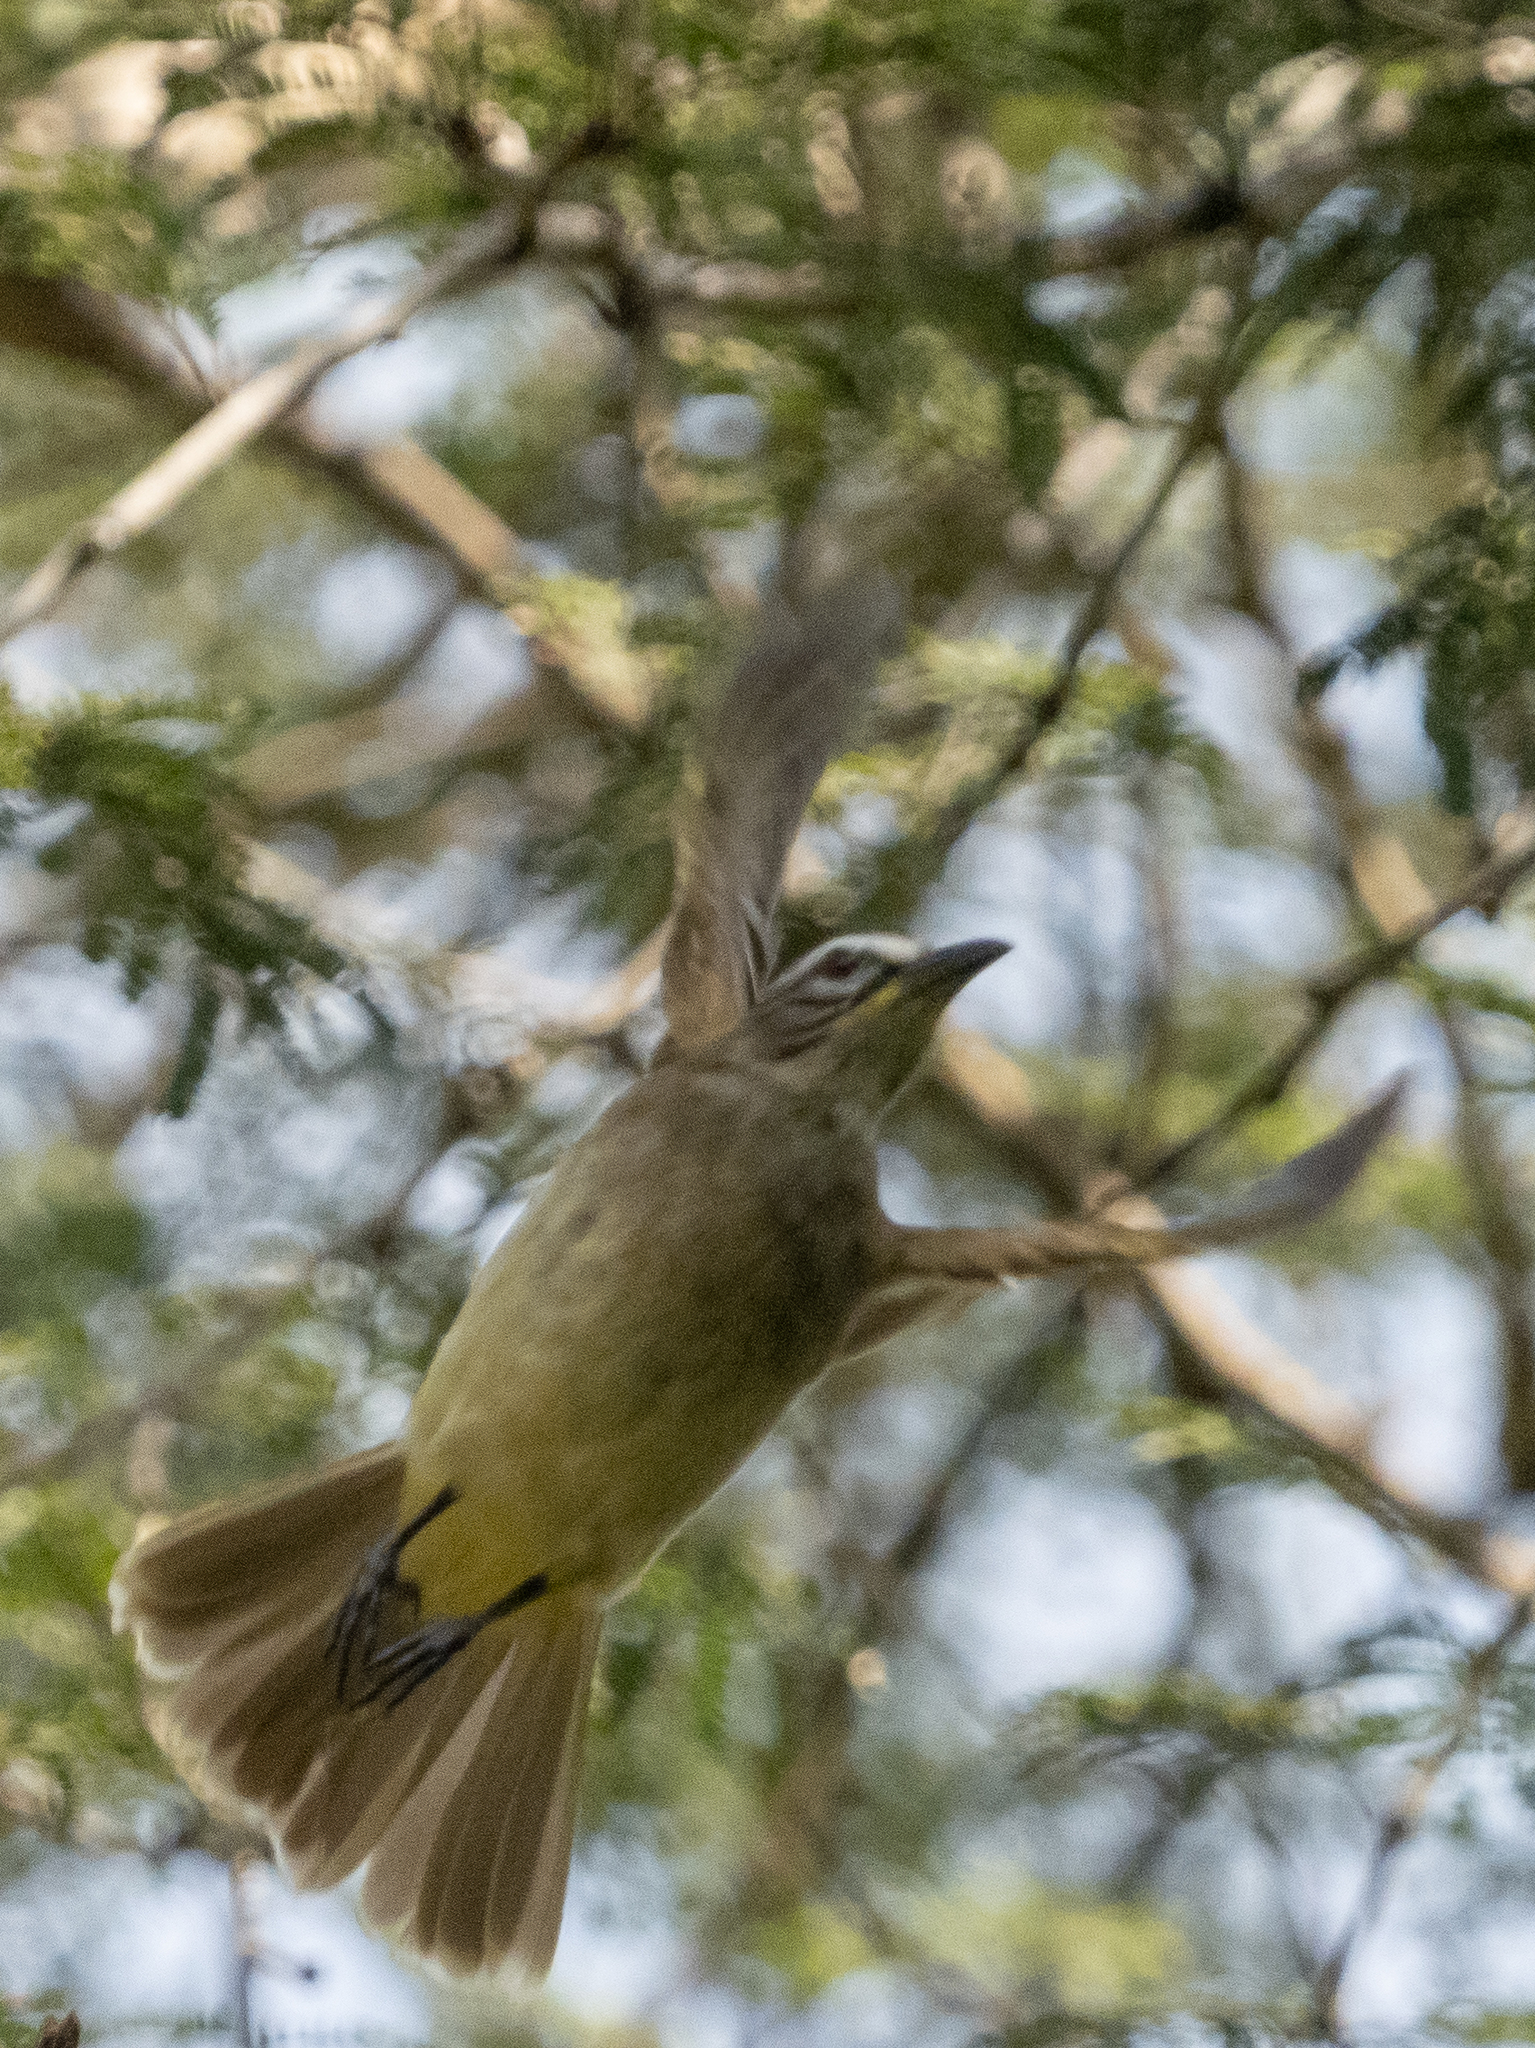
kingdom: Animalia
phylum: Chordata
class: Aves
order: Passeriformes
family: Pycnonotidae
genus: Pycnonotus
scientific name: Pycnonotus luteolus
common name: White-browed bulbul
